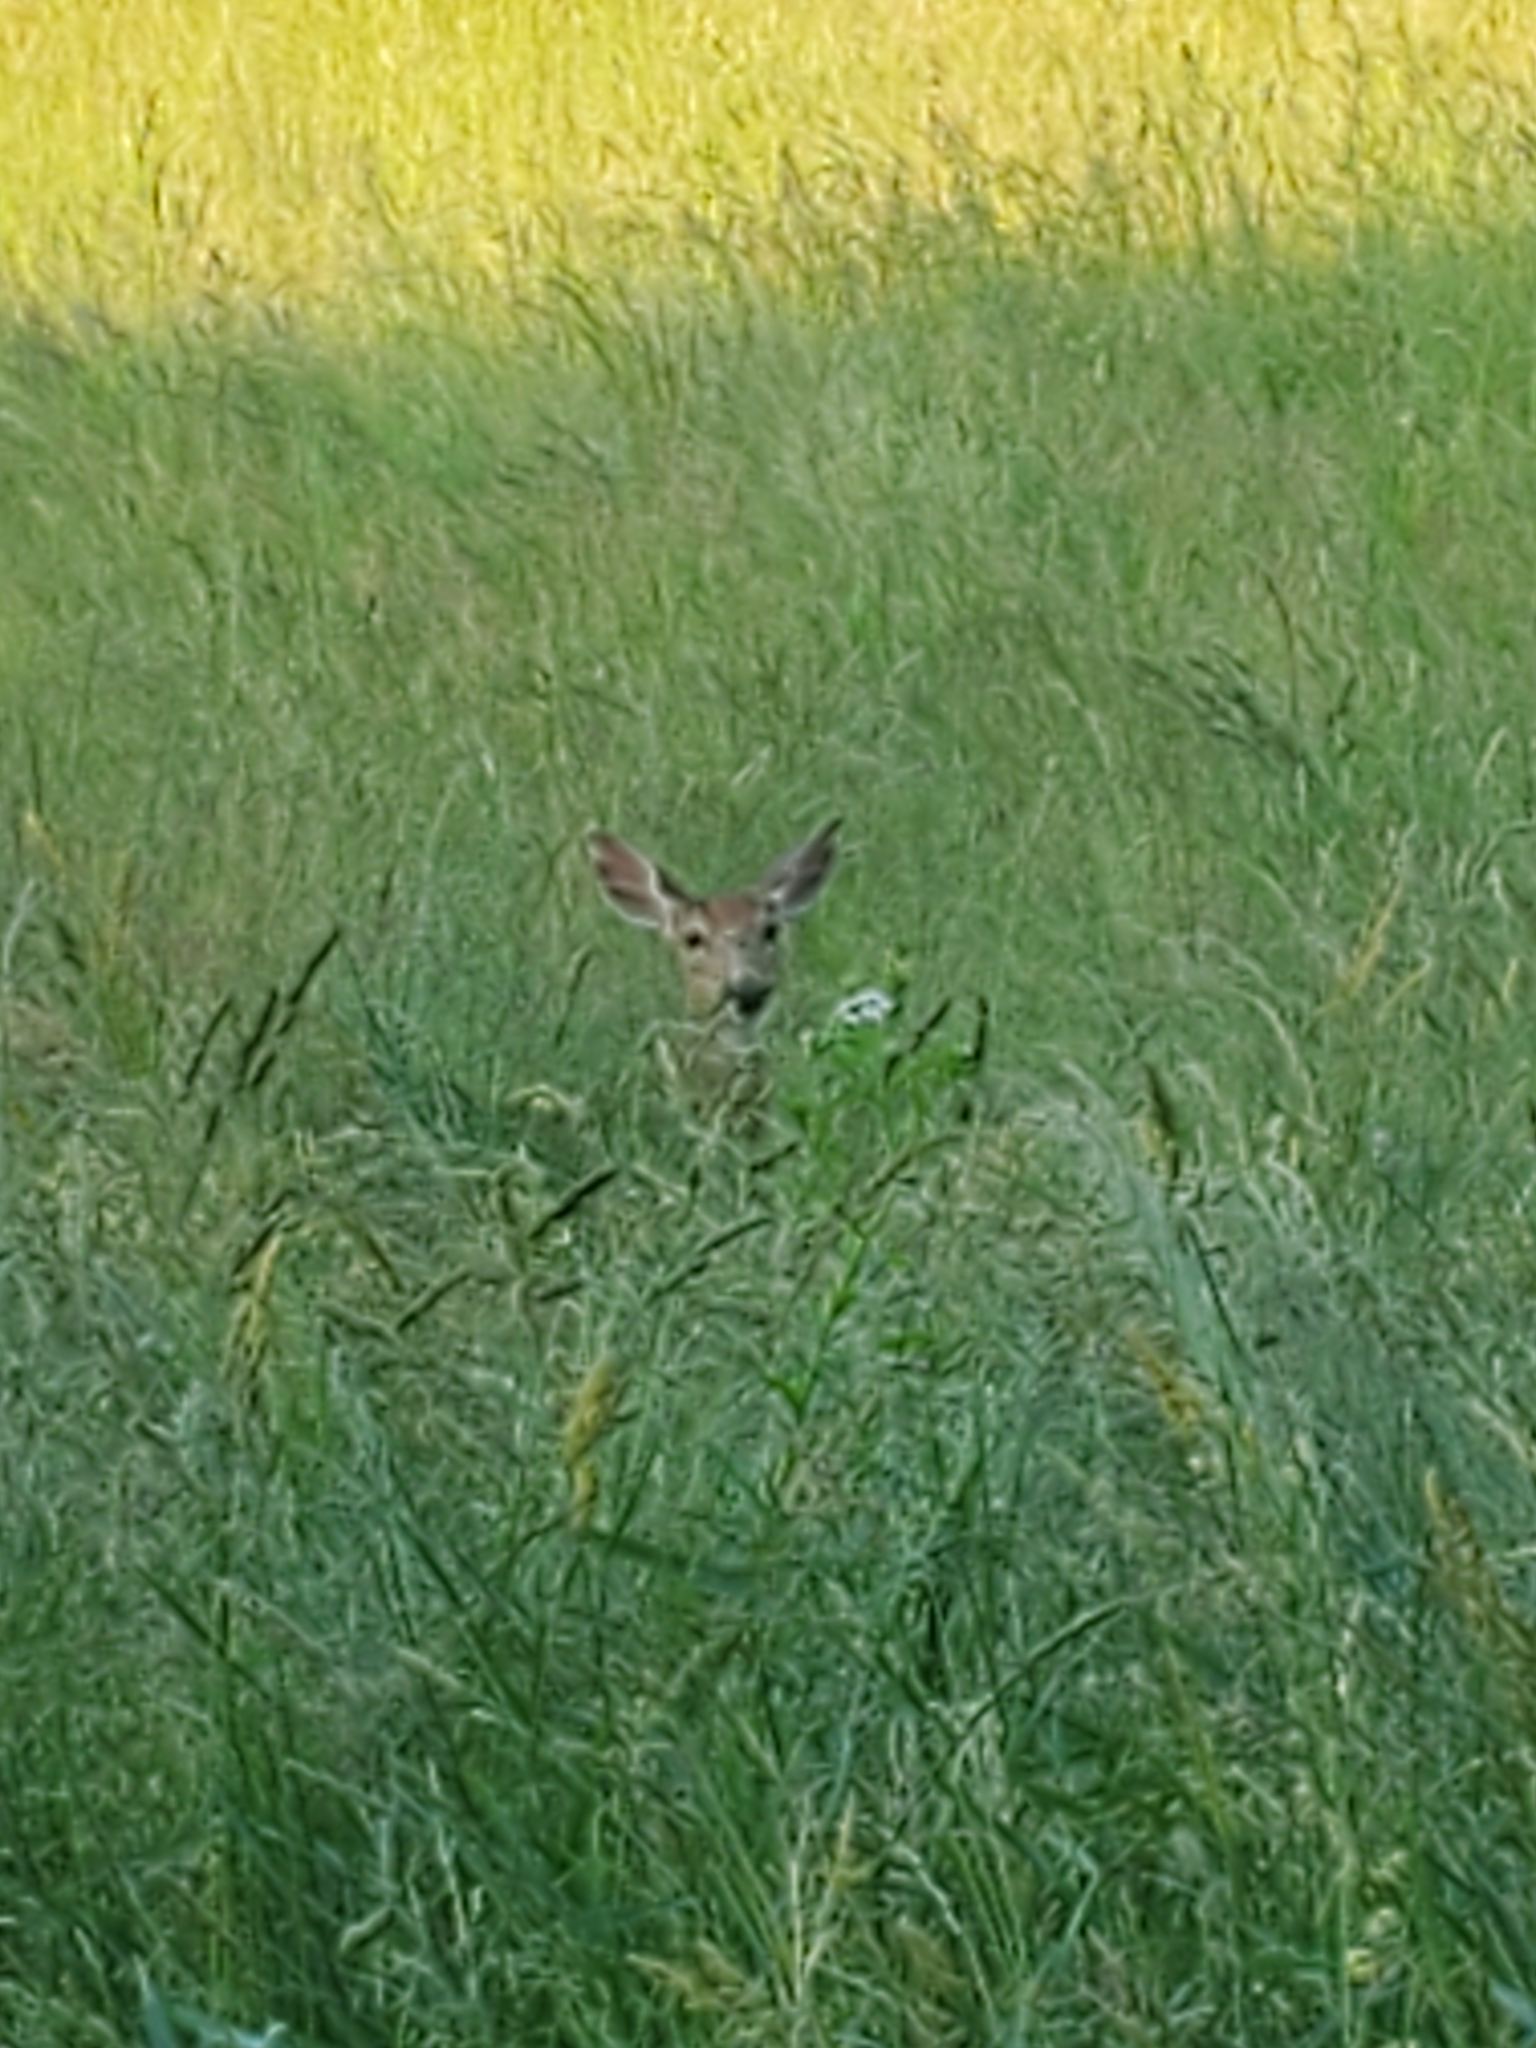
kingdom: Animalia
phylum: Chordata
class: Mammalia
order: Artiodactyla
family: Cervidae
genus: Odocoileus
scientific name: Odocoileus virginianus
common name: White-tailed deer
